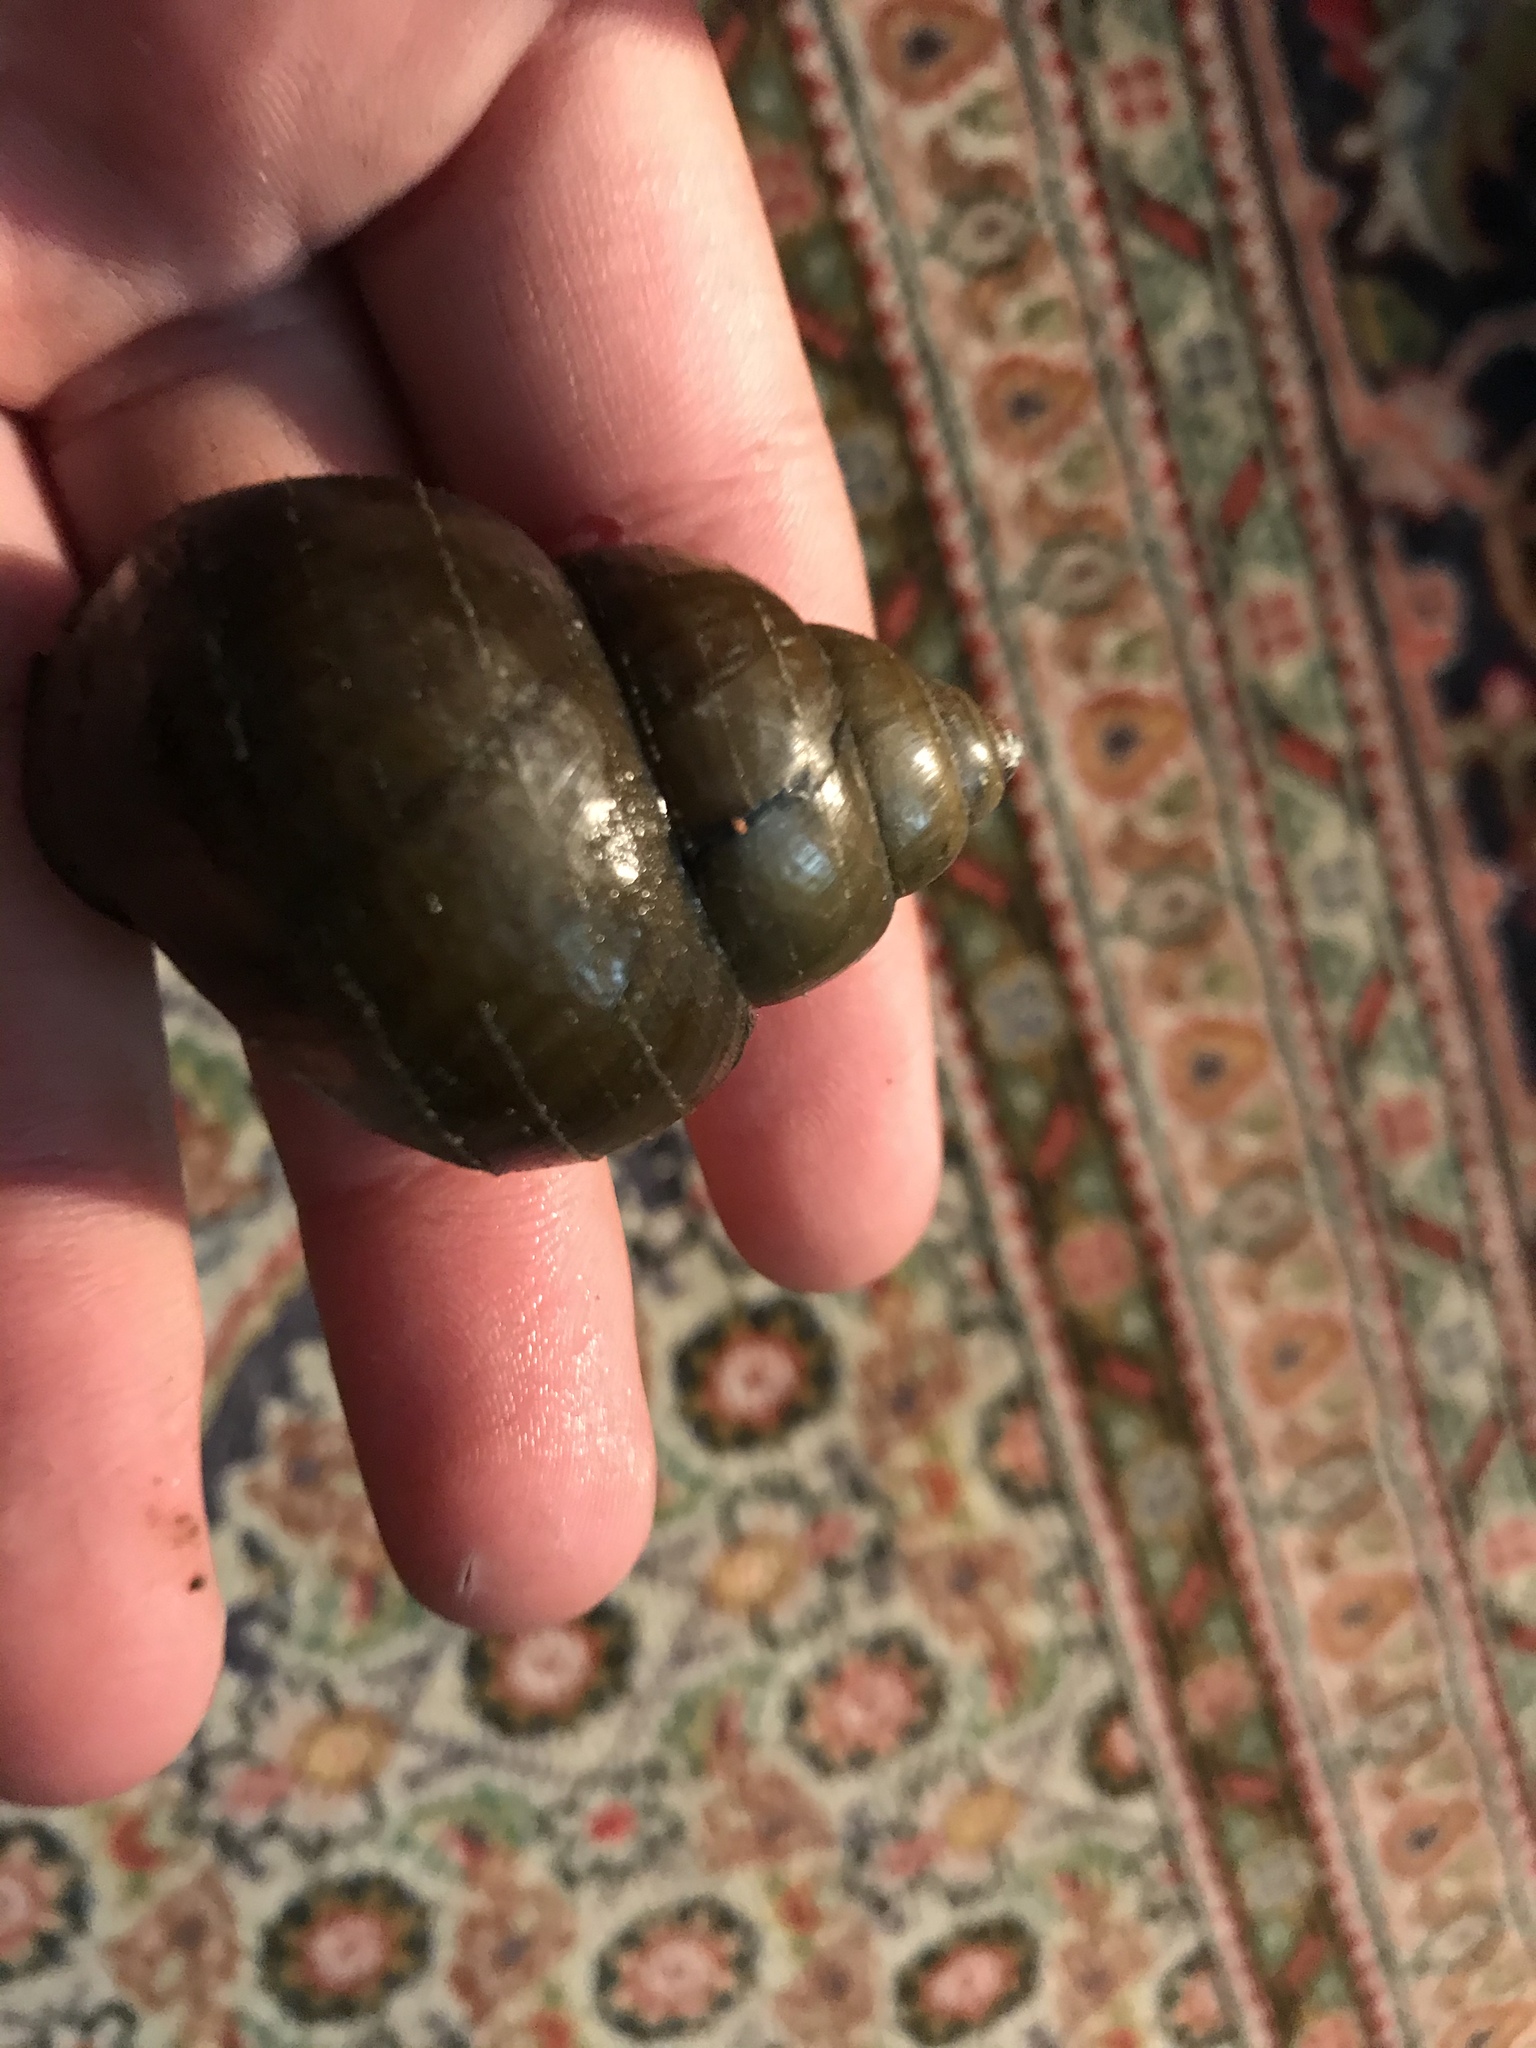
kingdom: Animalia
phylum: Mollusca
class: Gastropoda
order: Architaenioglossa
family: Viviparidae
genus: Cipangopaludina
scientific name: Cipangopaludina chinensis
